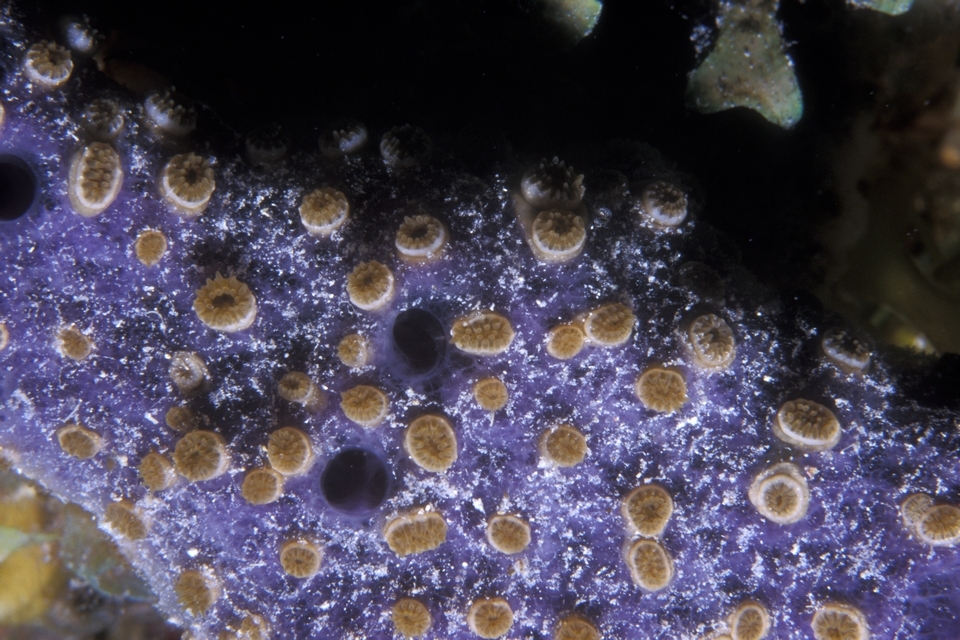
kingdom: Animalia
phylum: Cnidaria
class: Anthozoa
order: Zoantharia
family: Parazoanthidae
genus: Umimayanthus
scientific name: Umimayanthus parasiticus
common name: Sponge zoanthid
